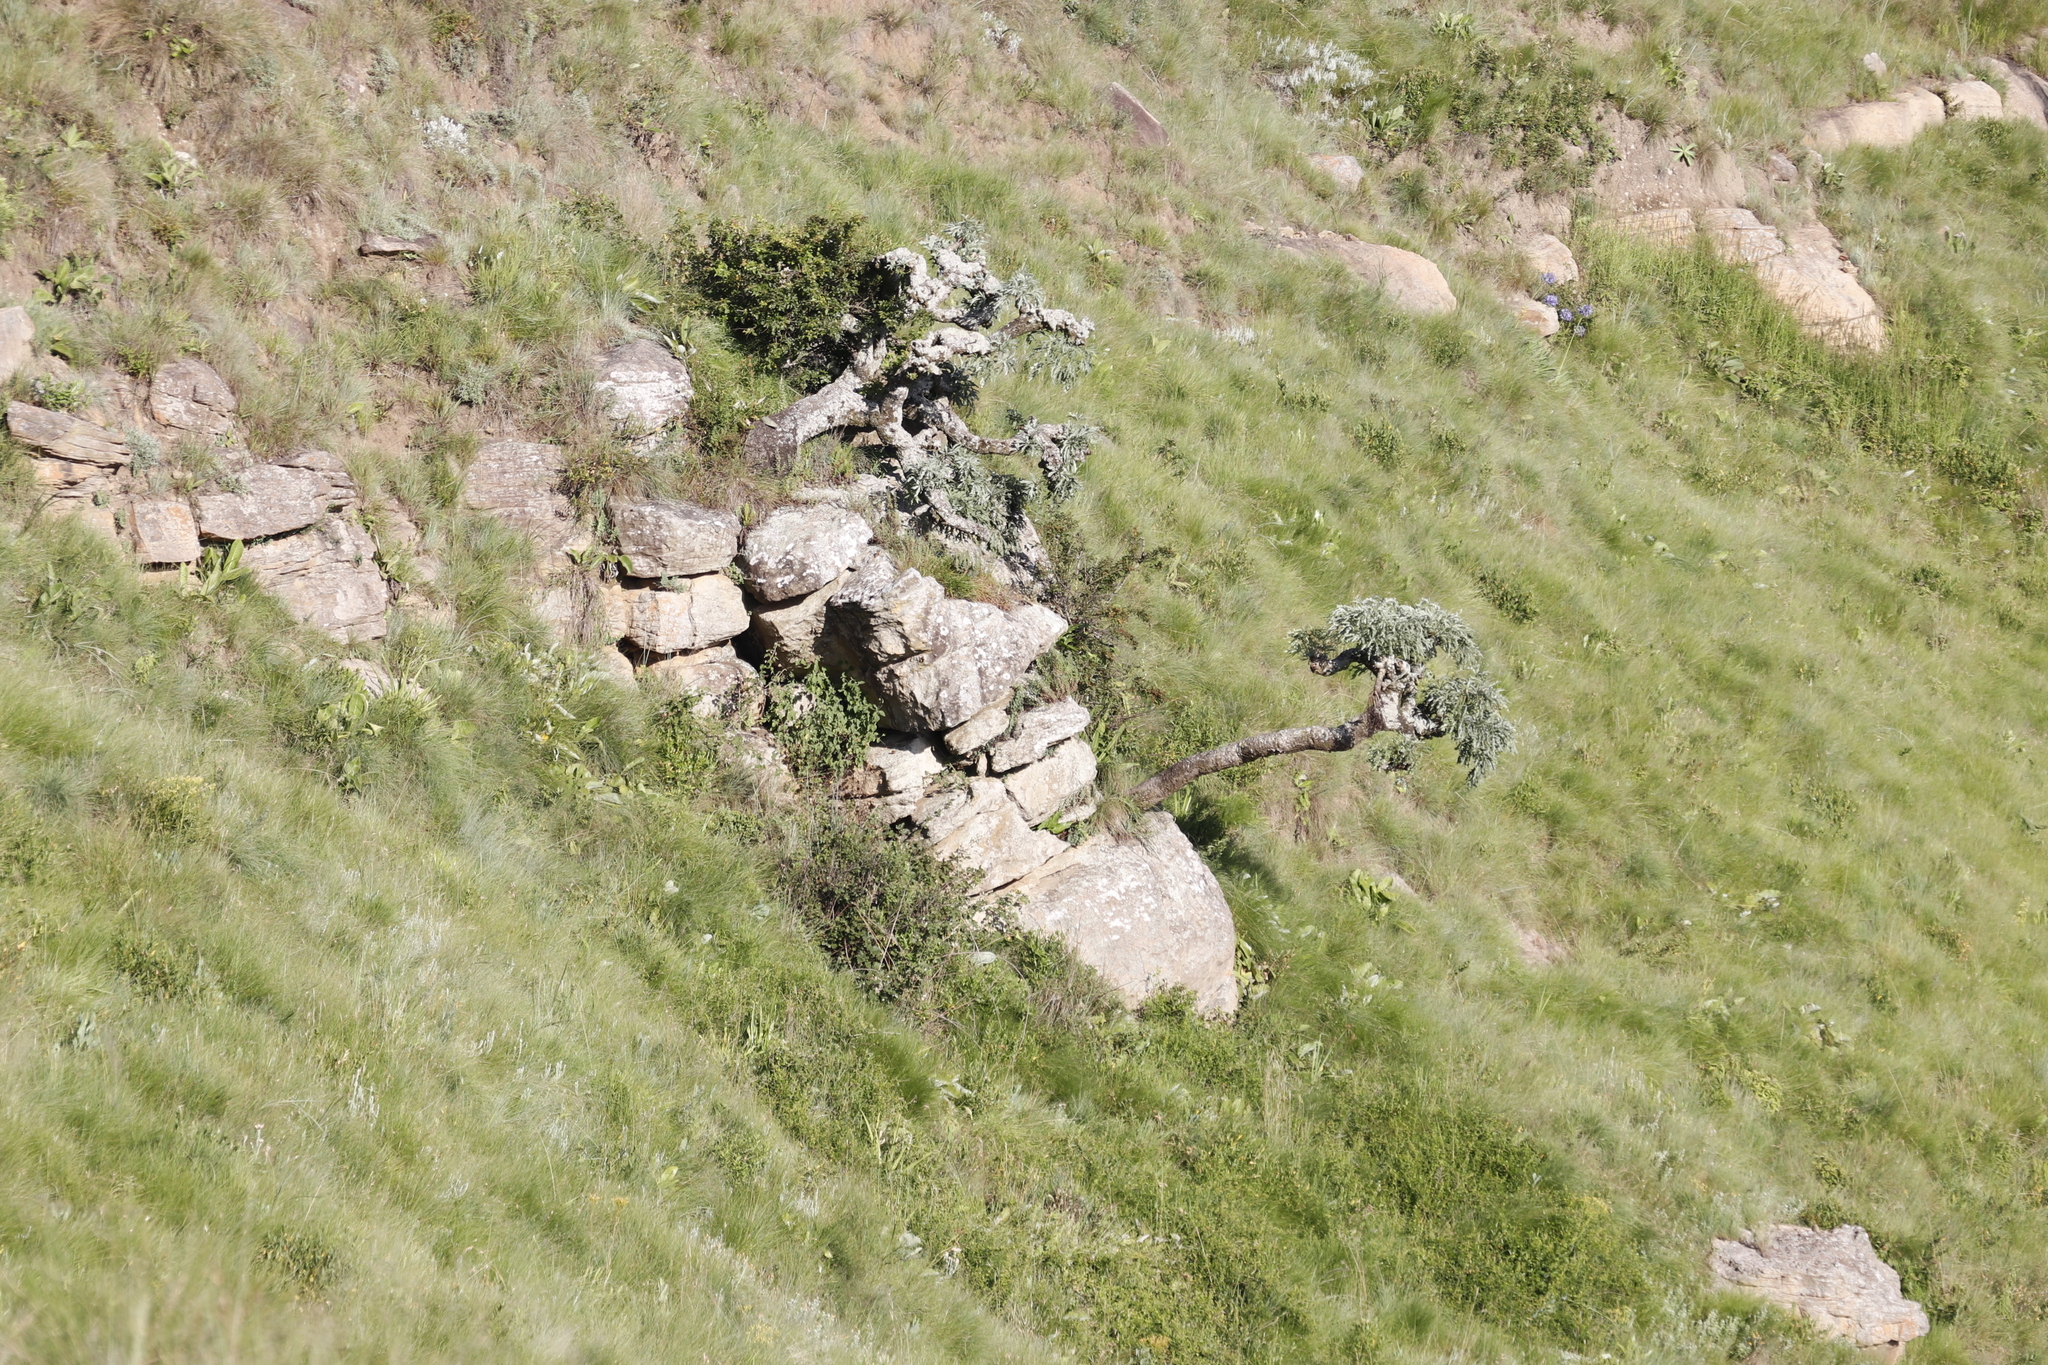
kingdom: Plantae
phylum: Tracheophyta
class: Magnoliopsida
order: Apiales
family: Araliaceae
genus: Cussonia
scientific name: Cussonia paniculata
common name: Cabbagetree
